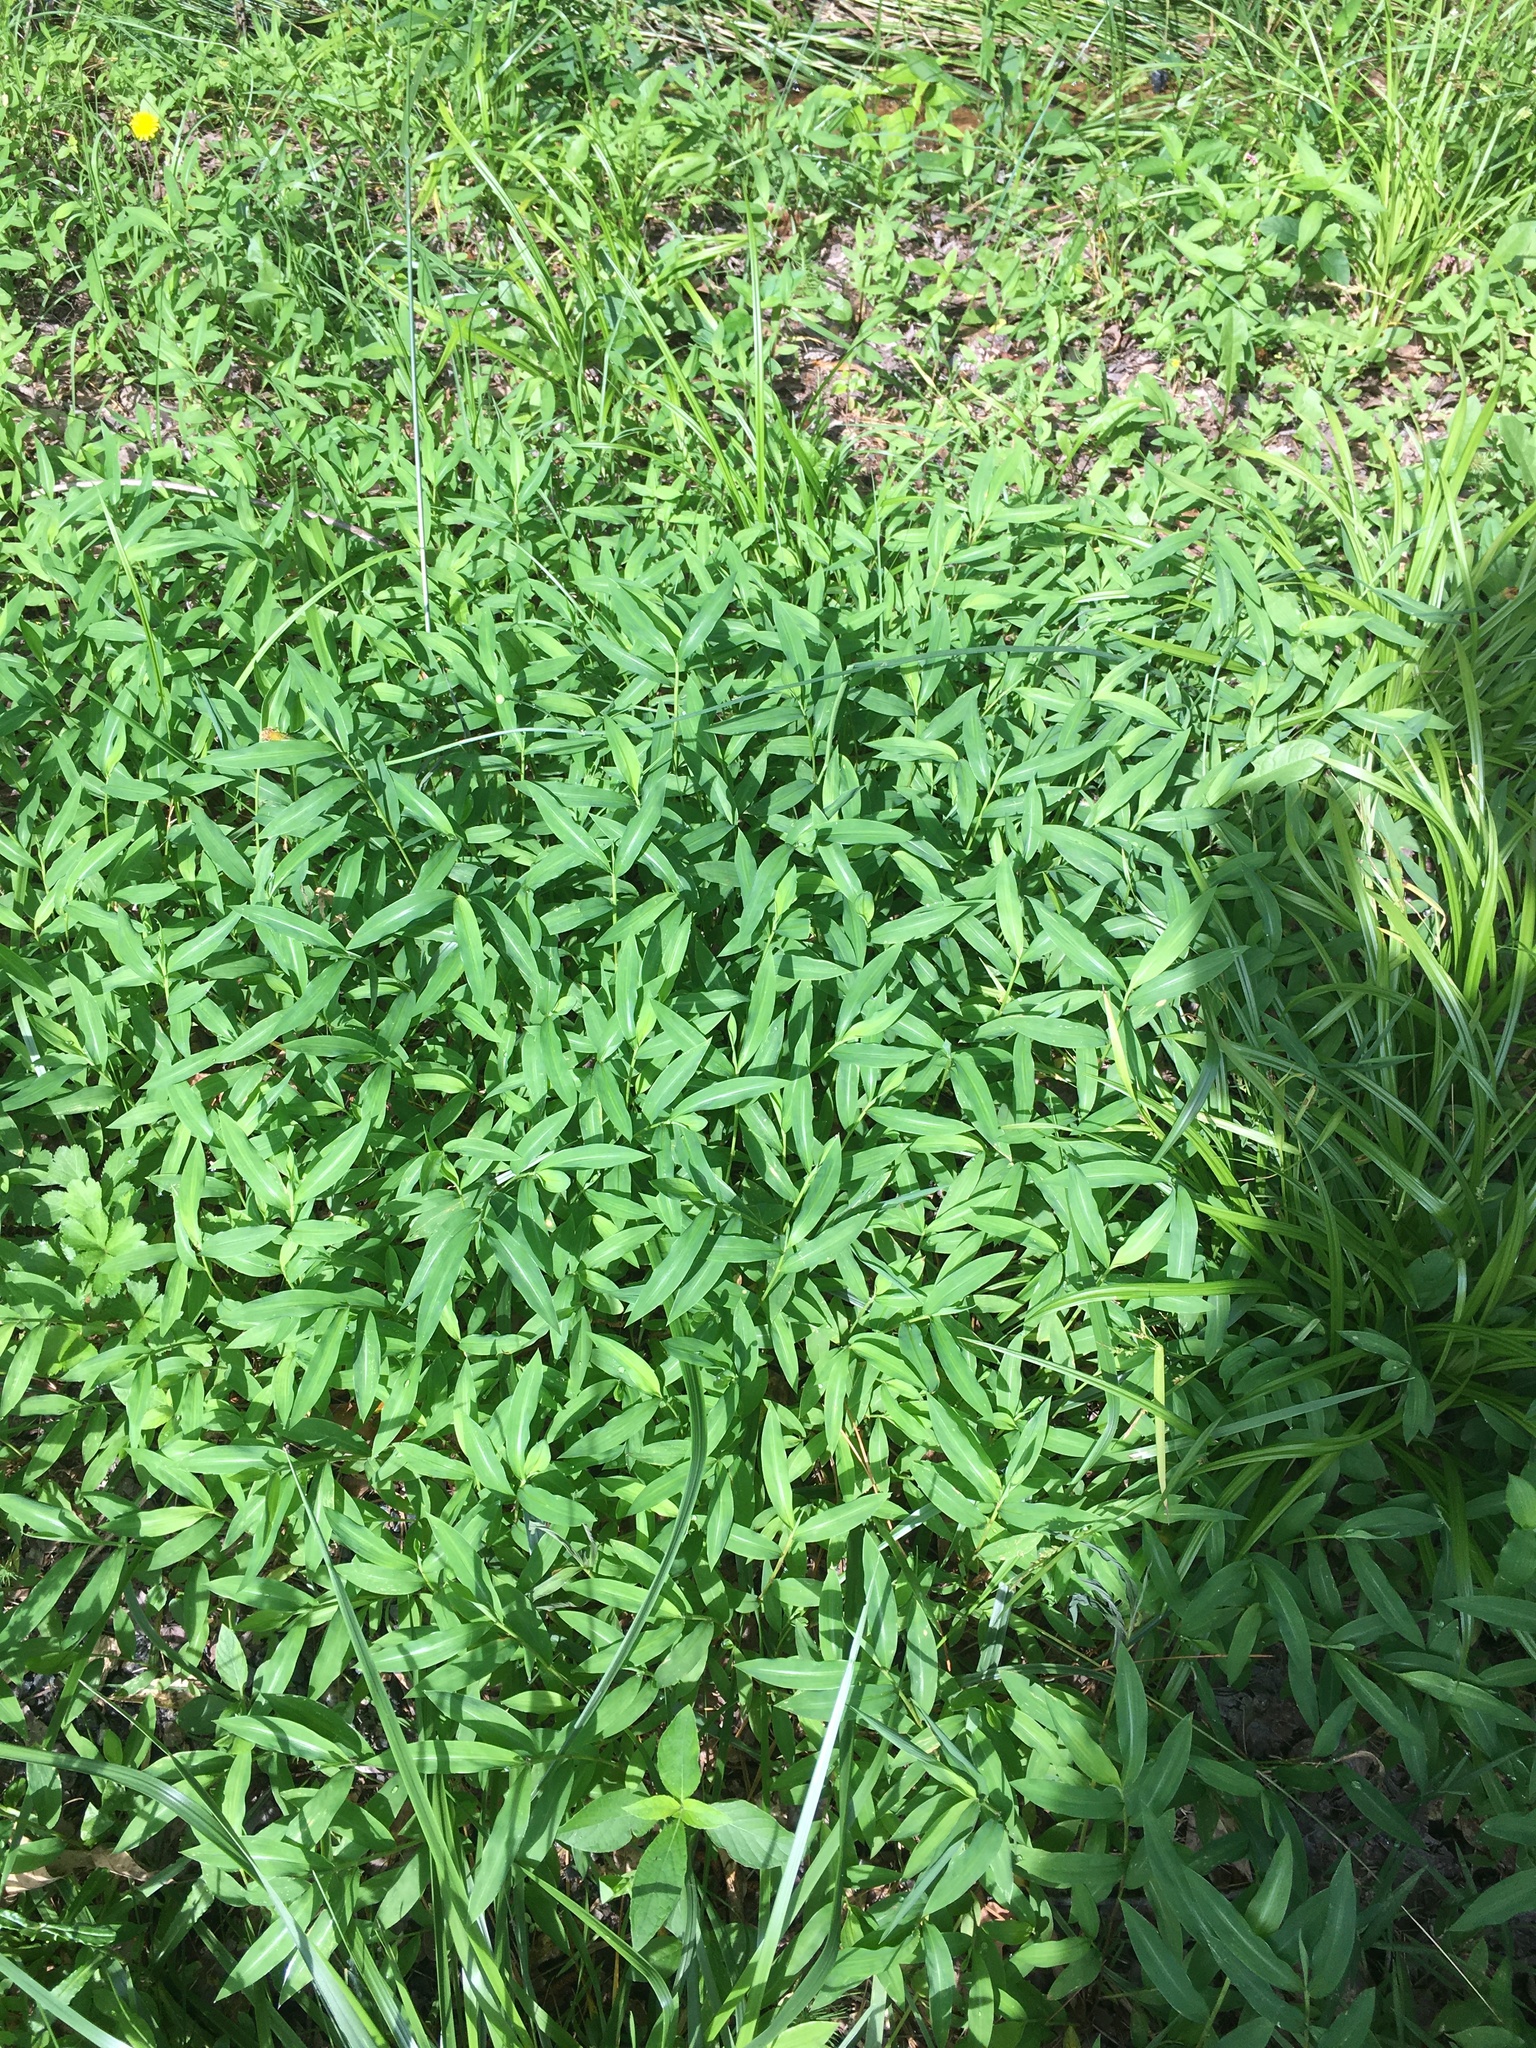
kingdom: Plantae
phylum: Tracheophyta
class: Liliopsida
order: Poales
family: Poaceae
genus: Microstegium
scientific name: Microstegium vimineum
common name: Japanese stiltgrass
